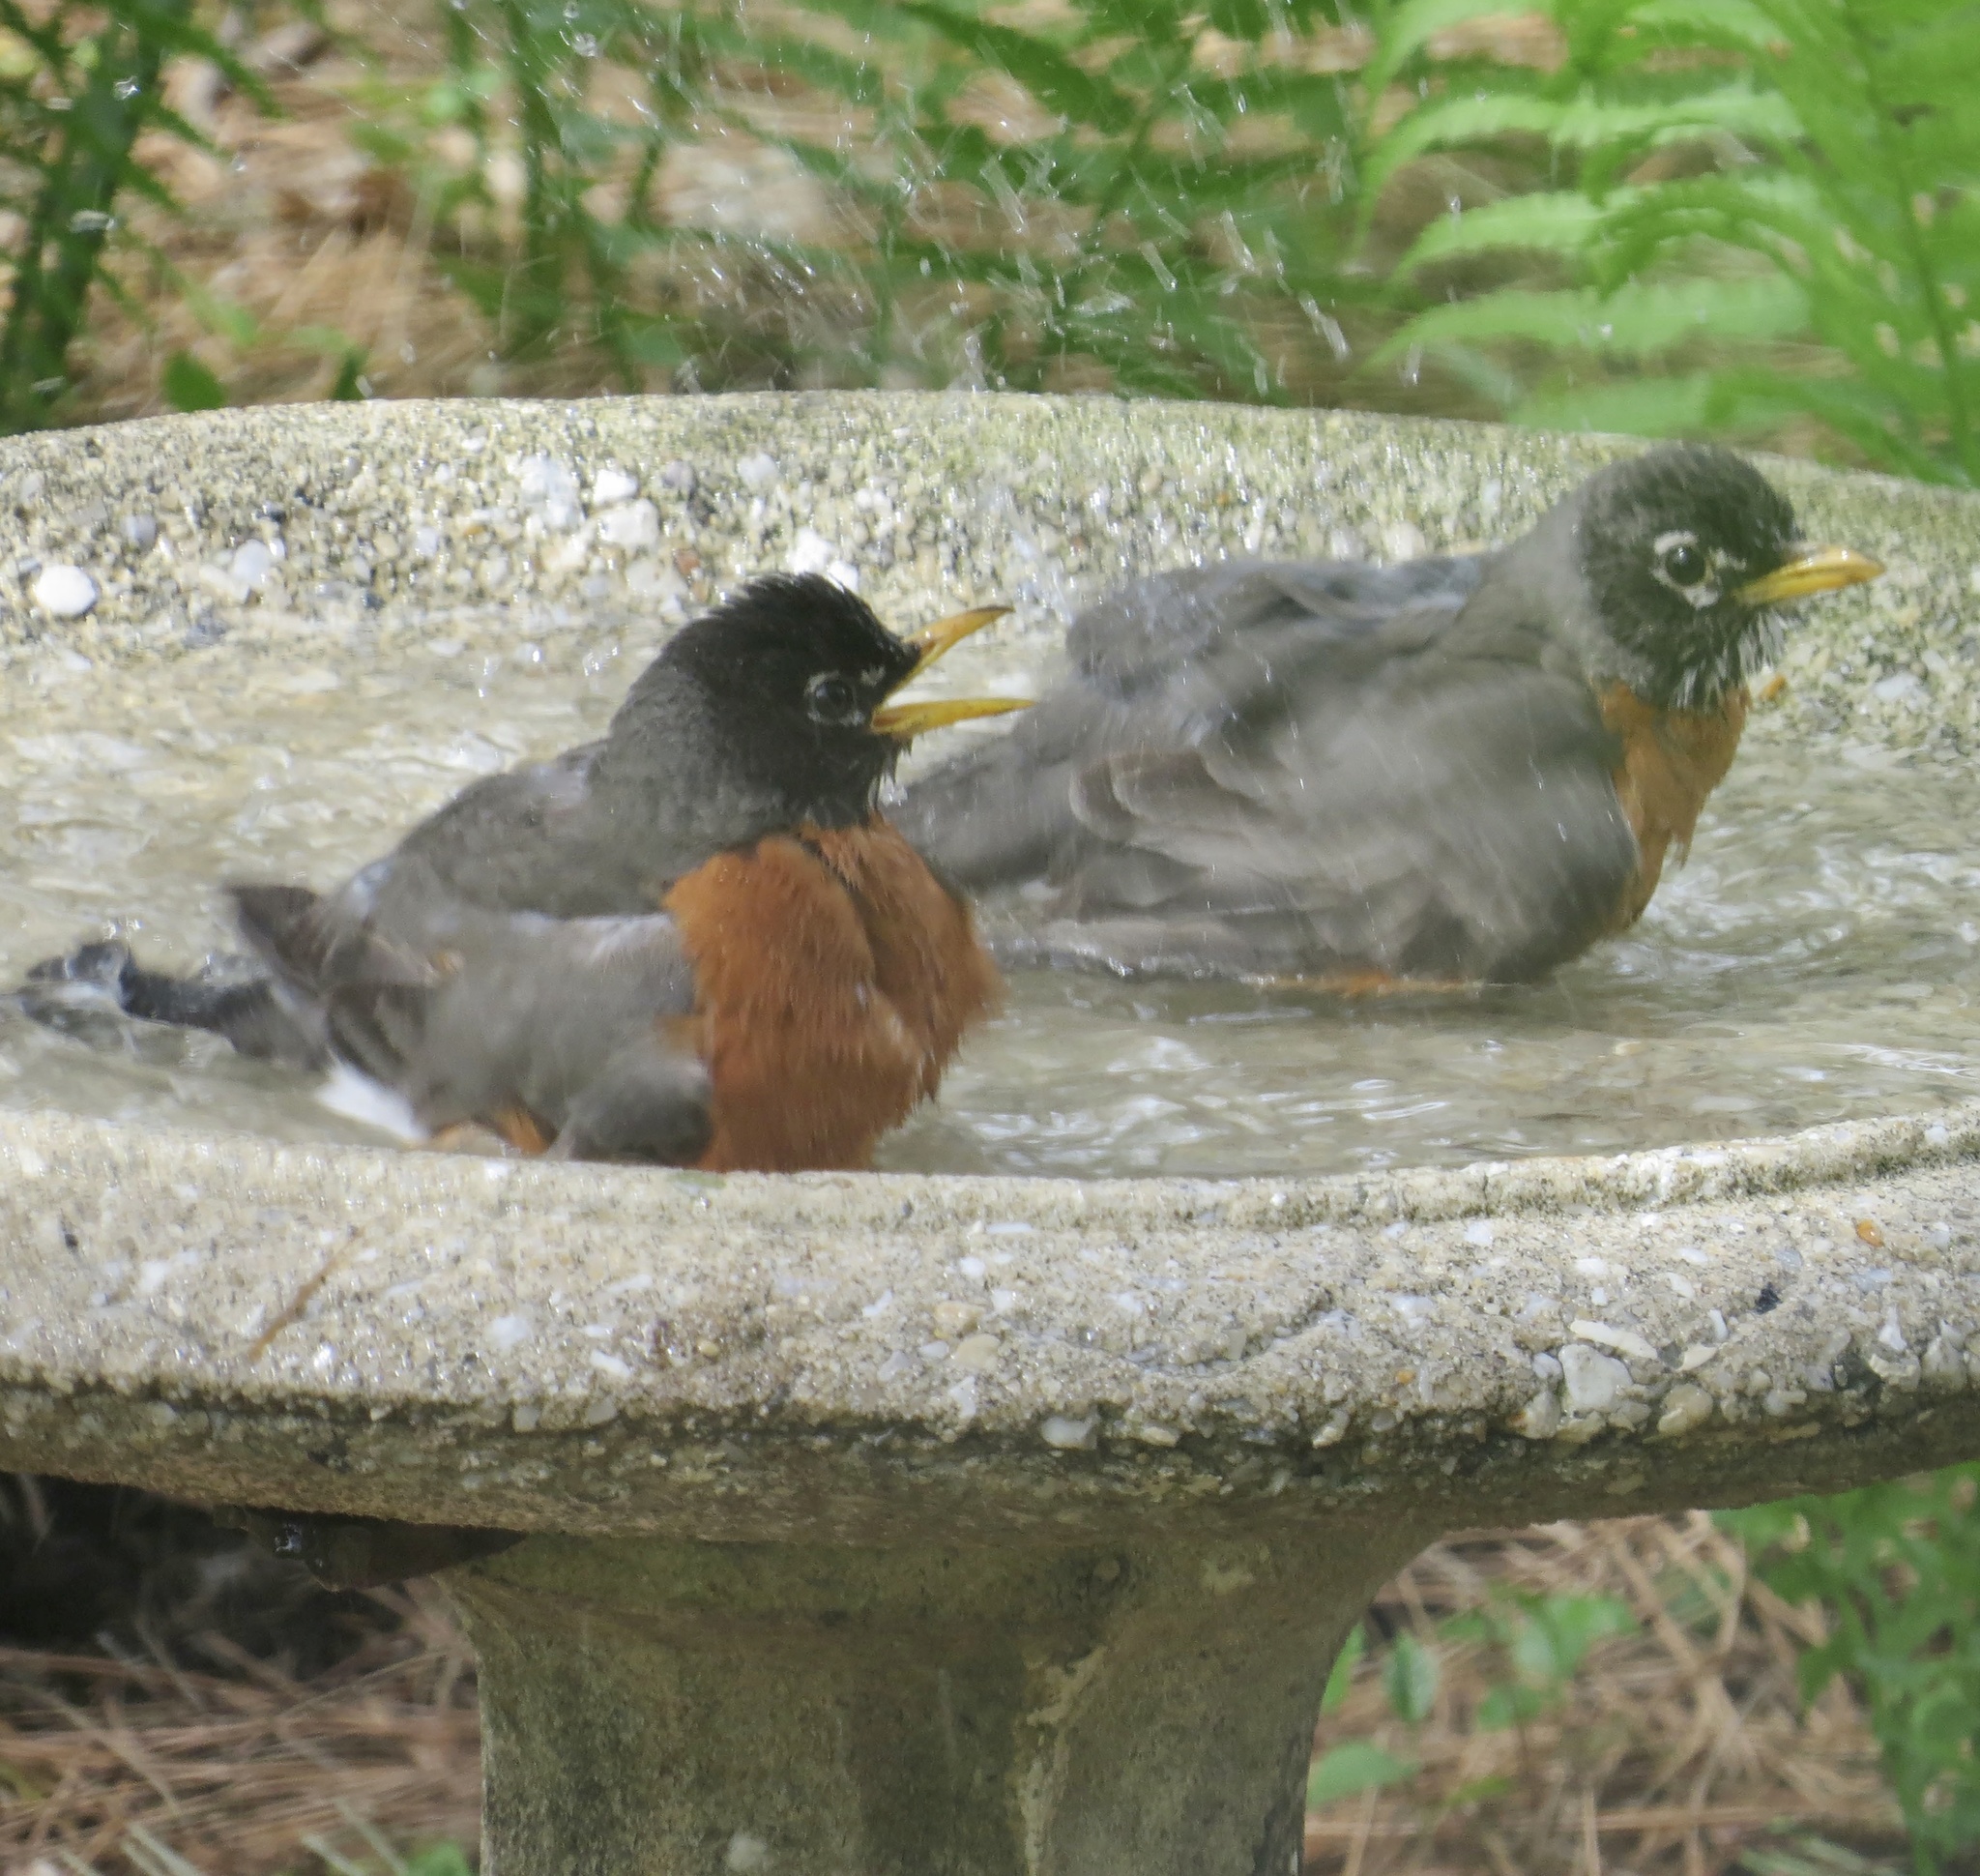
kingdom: Animalia
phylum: Chordata
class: Aves
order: Passeriformes
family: Turdidae
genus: Turdus
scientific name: Turdus migratorius
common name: American robin
